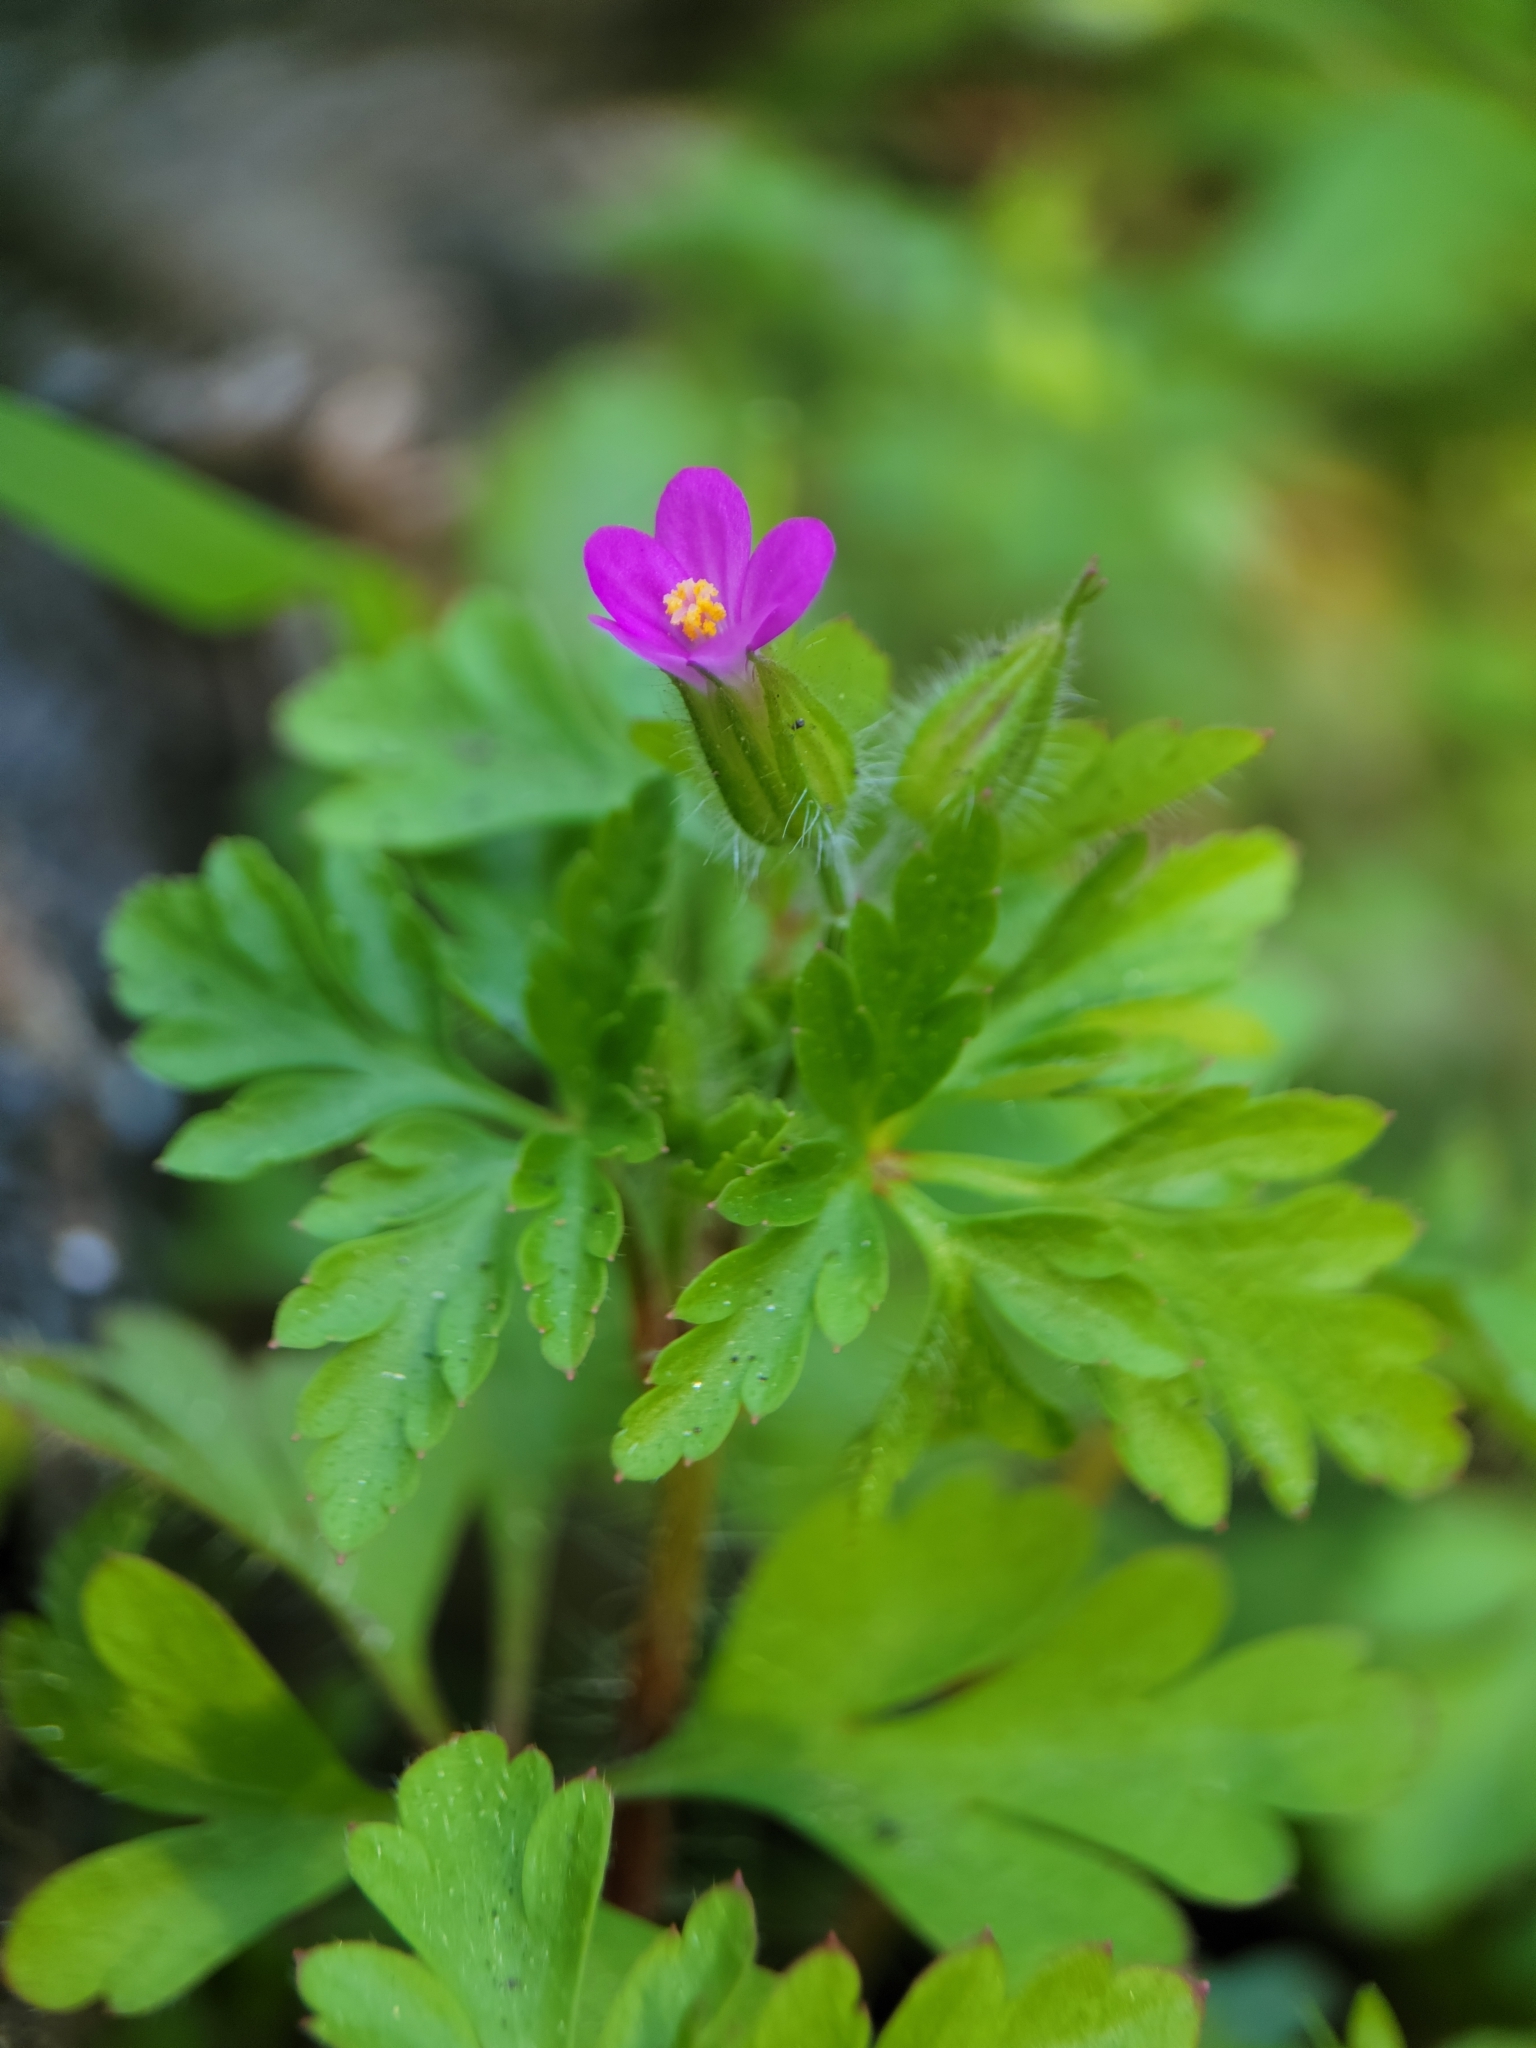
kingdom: Plantae
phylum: Tracheophyta
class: Magnoliopsida
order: Geraniales
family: Geraniaceae
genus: Geranium
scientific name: Geranium purpureum
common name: Little-robin
